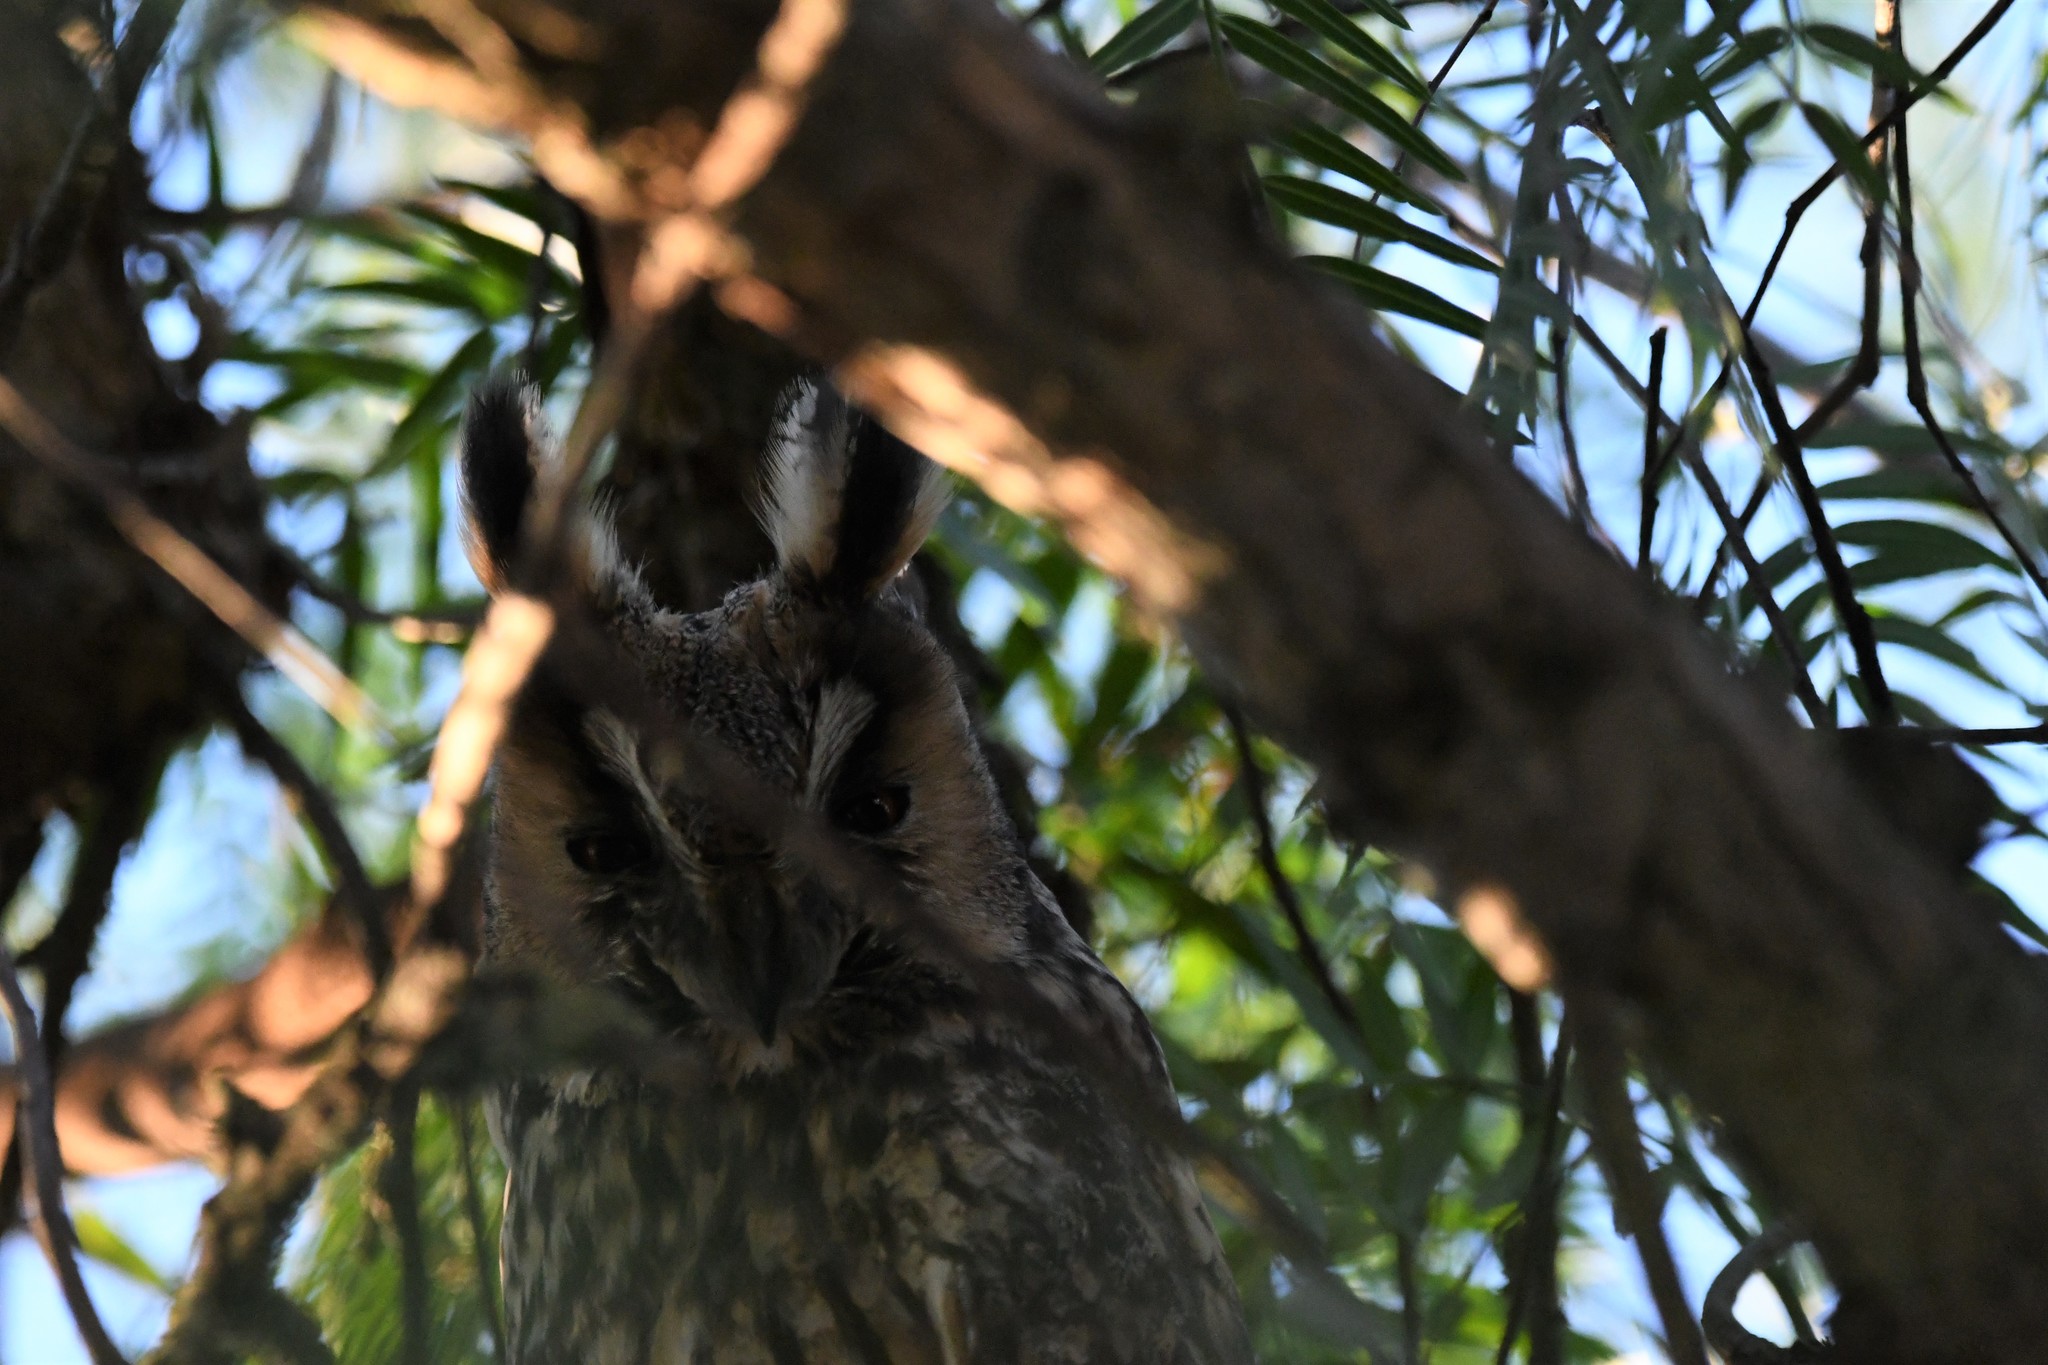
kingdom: Animalia
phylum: Chordata
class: Aves
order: Strigiformes
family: Strigidae
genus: Asio
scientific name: Asio otus
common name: Long-eared owl
